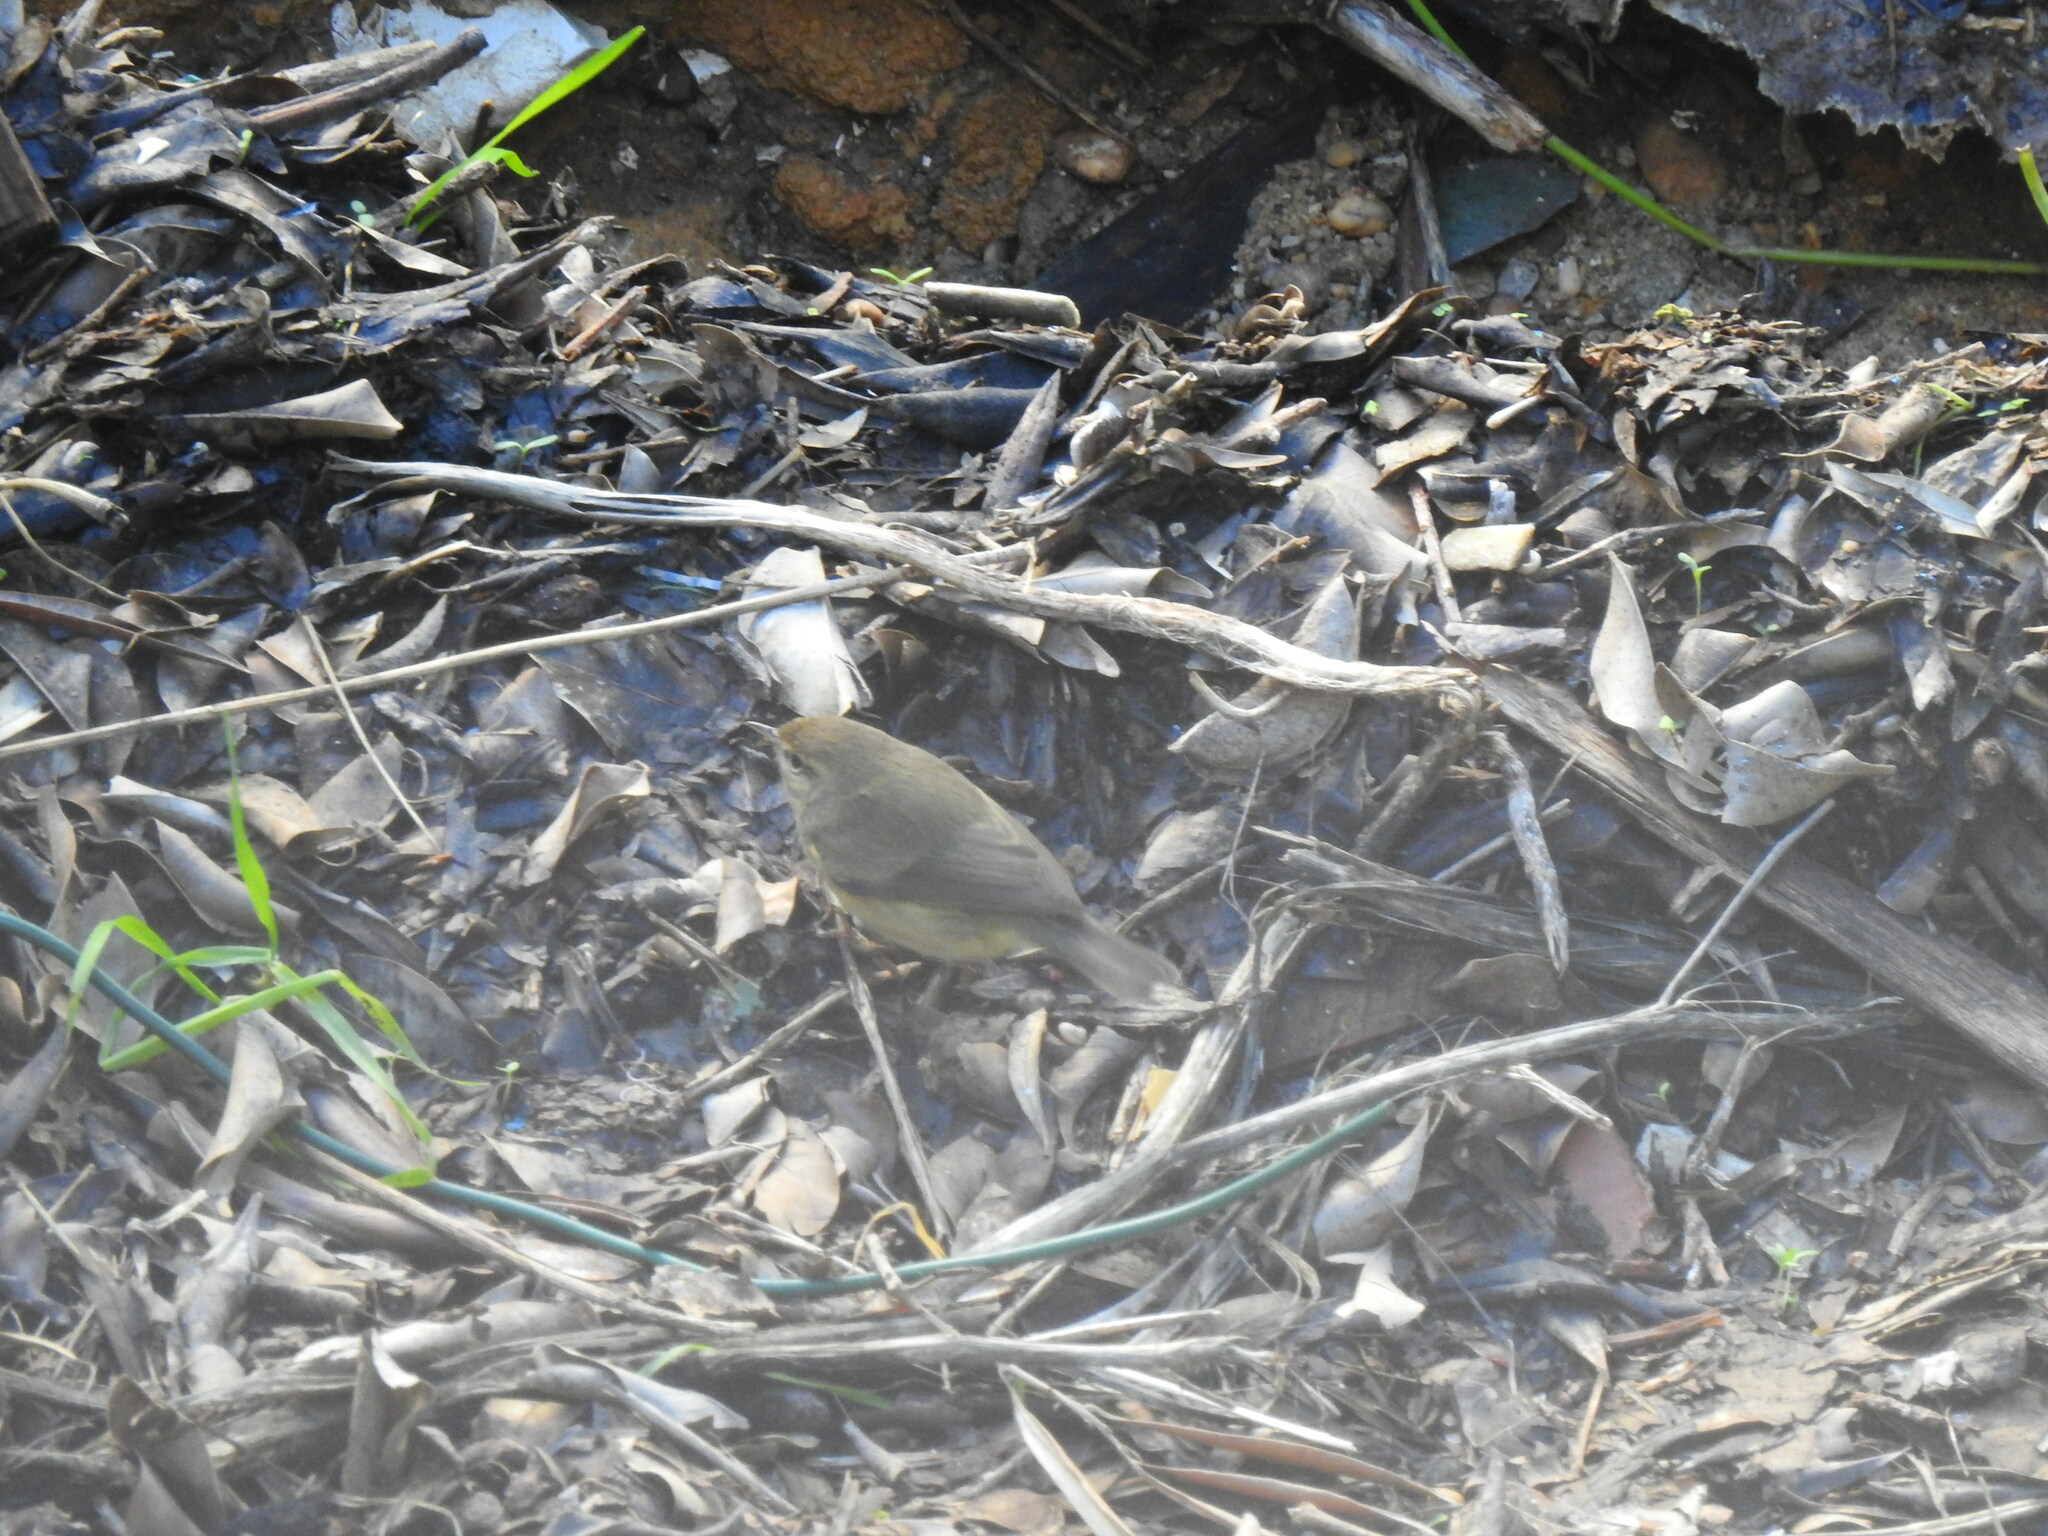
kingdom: Animalia
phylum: Chordata
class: Aves
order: Passeriformes
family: Phylloscopidae
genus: Phylloscopus
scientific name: Phylloscopus collybita
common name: Common chiffchaff
